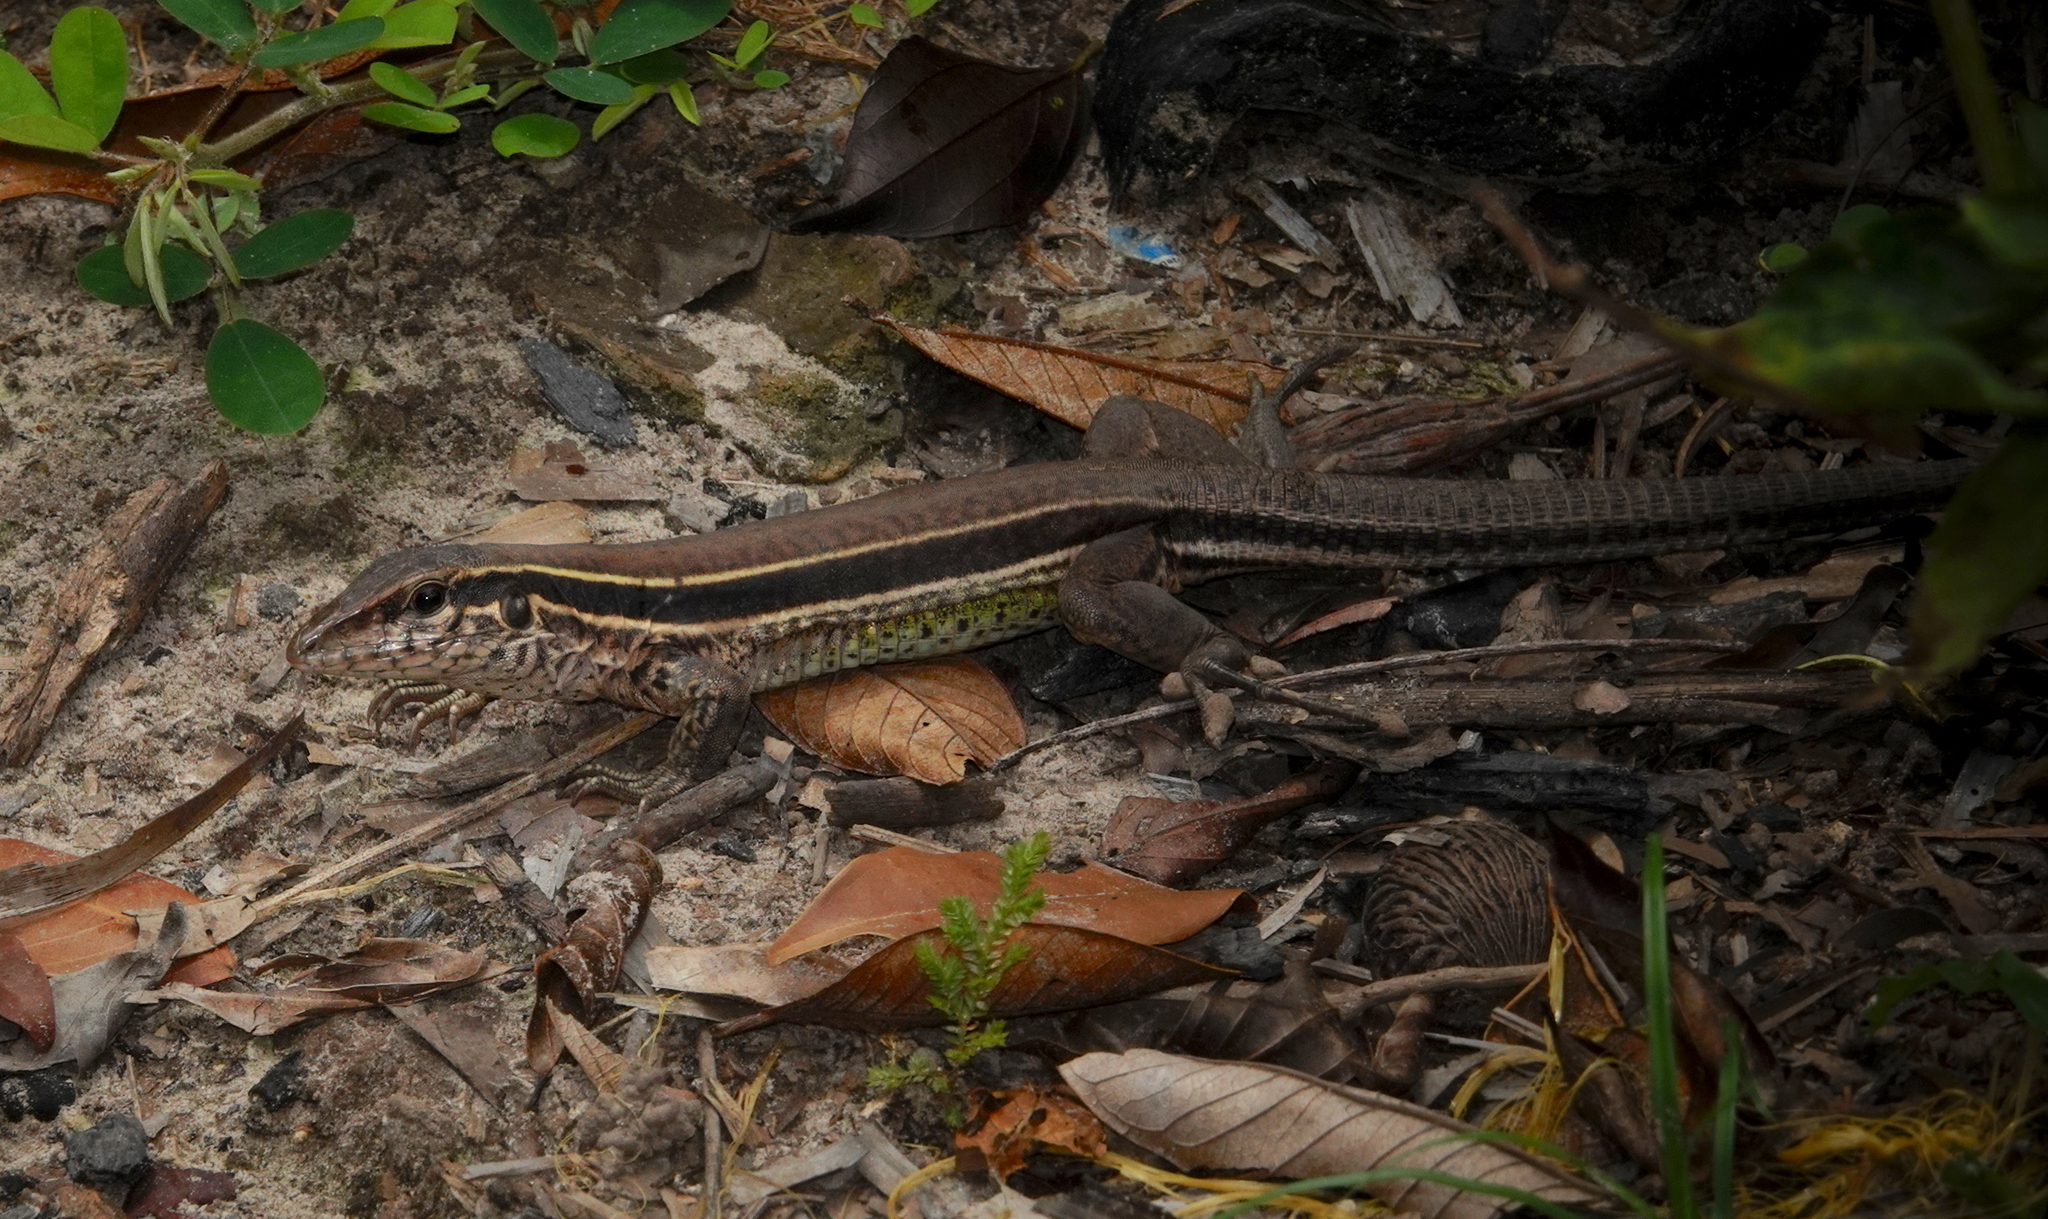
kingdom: Animalia
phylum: Chordata
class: Squamata
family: Teiidae
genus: Ameiva
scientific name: Ameiva ameiva
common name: Giant ameiva
